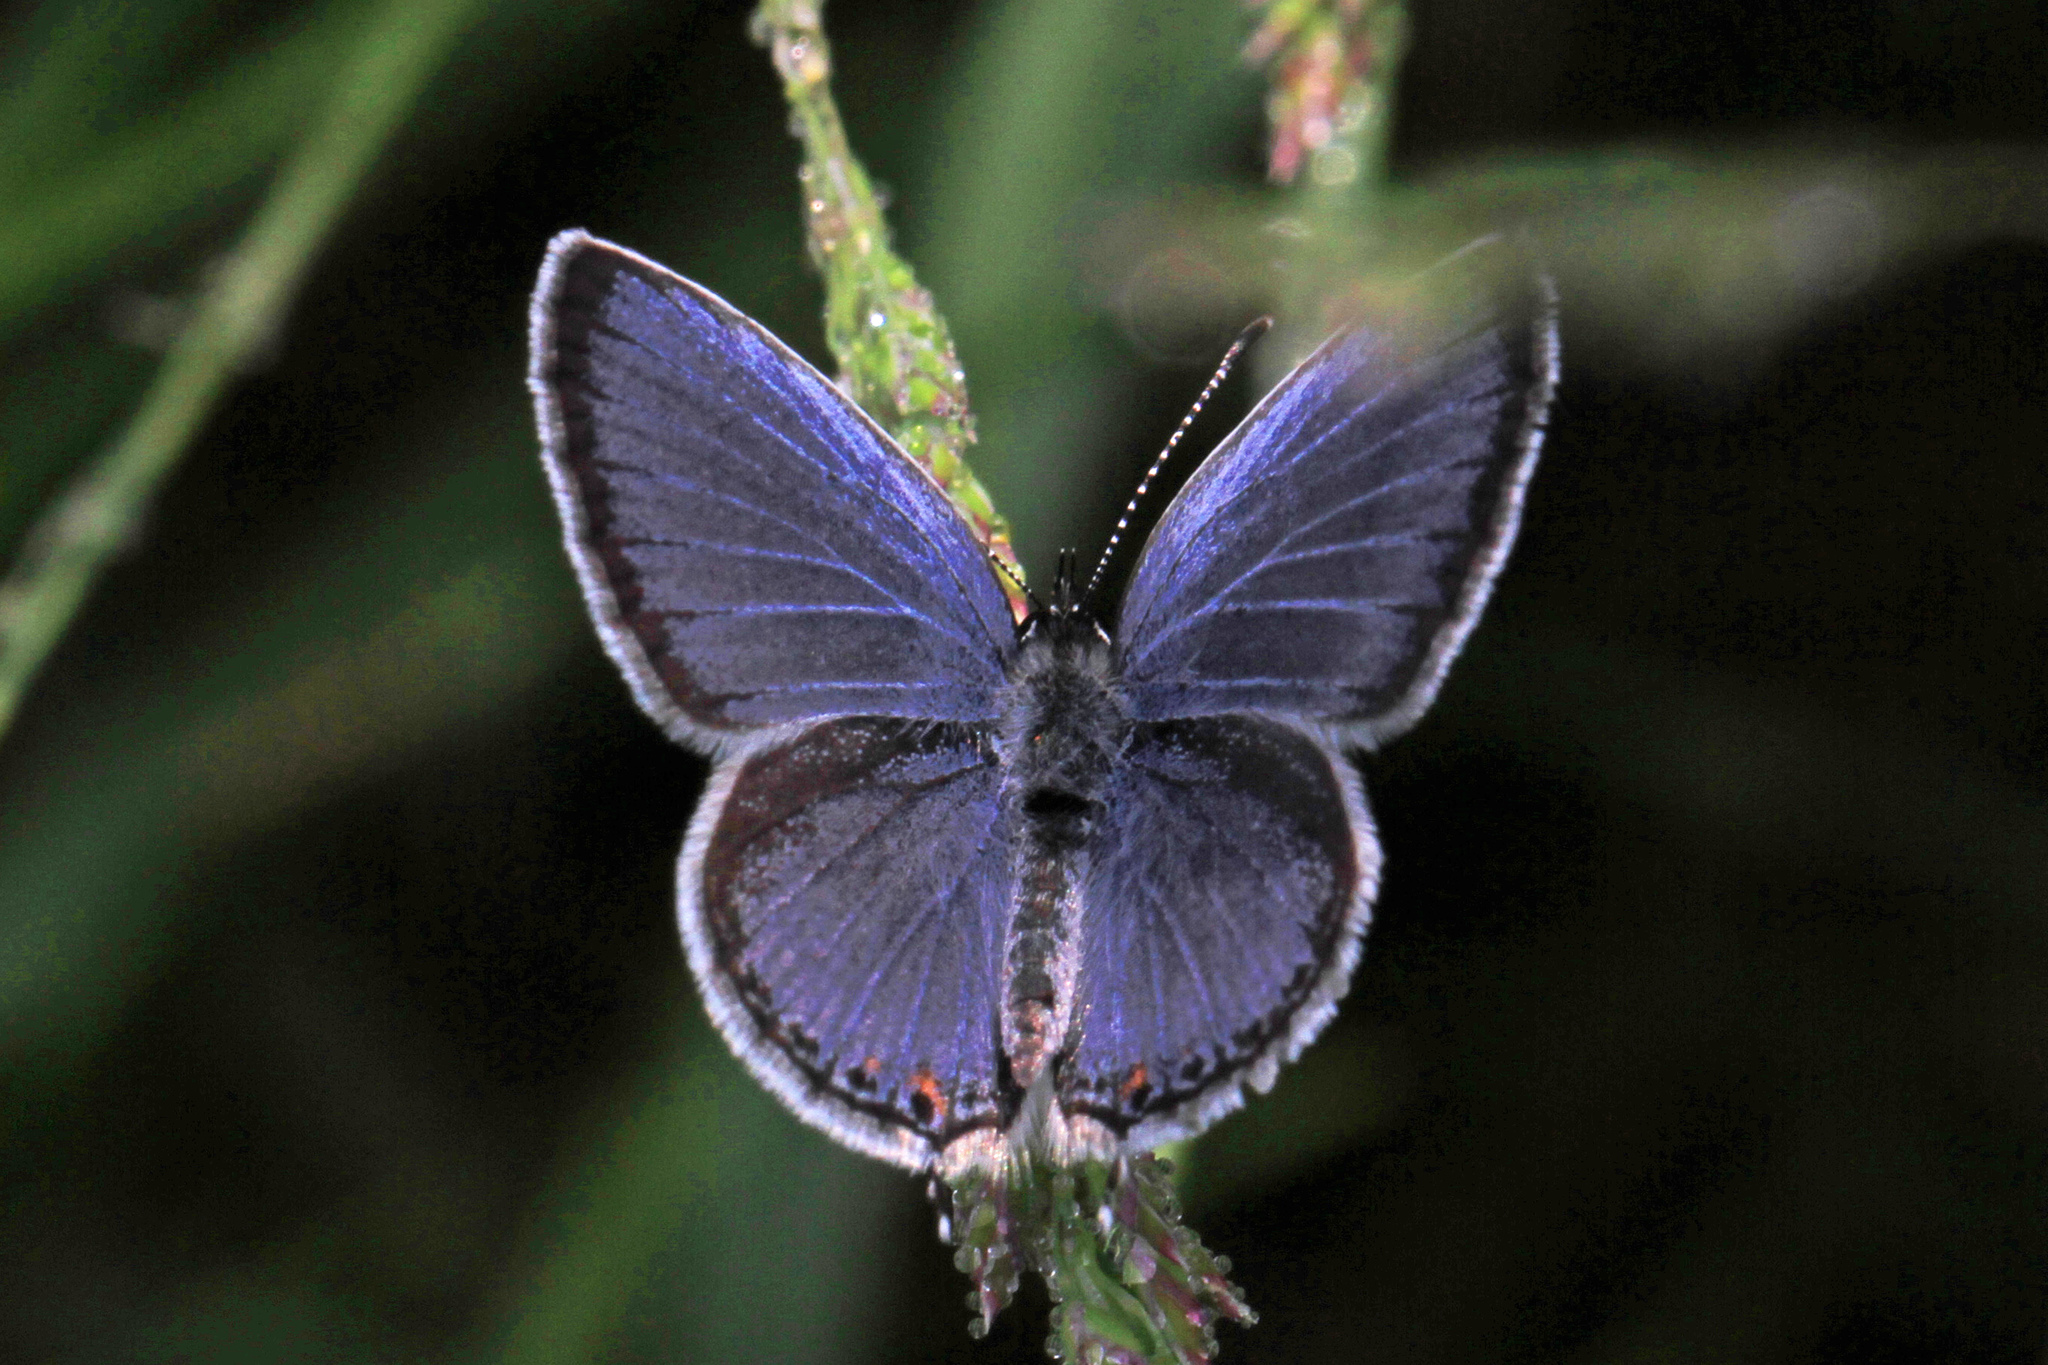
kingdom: Animalia
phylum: Arthropoda
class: Insecta
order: Lepidoptera
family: Lycaenidae
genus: Elkalyce
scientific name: Elkalyce comyntas
